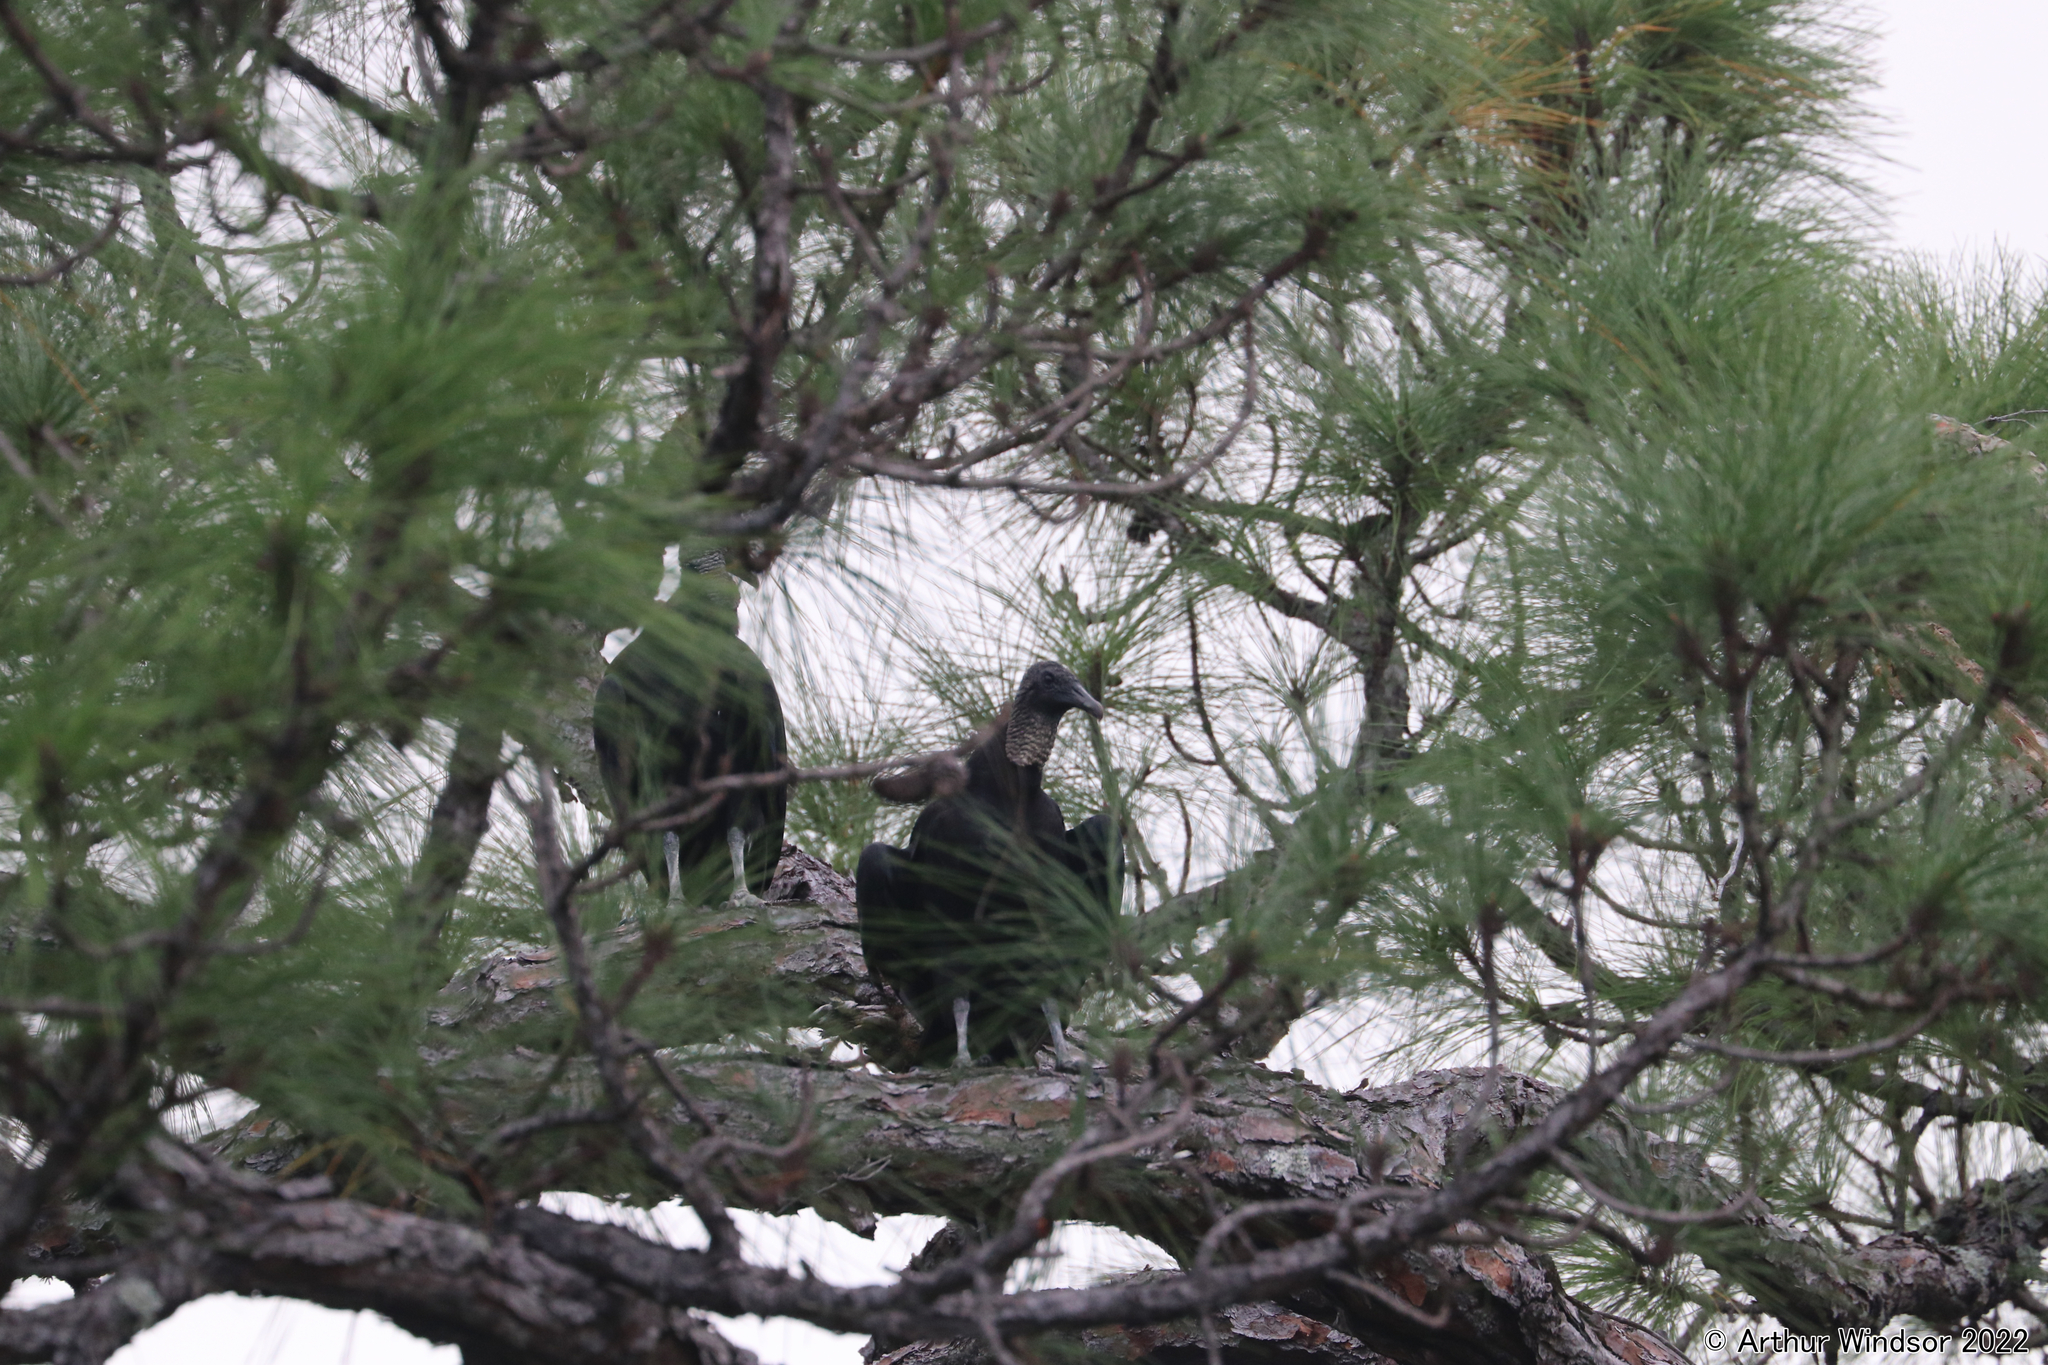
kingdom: Animalia
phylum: Chordata
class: Aves
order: Accipitriformes
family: Cathartidae
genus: Coragyps
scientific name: Coragyps atratus
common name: Black vulture
